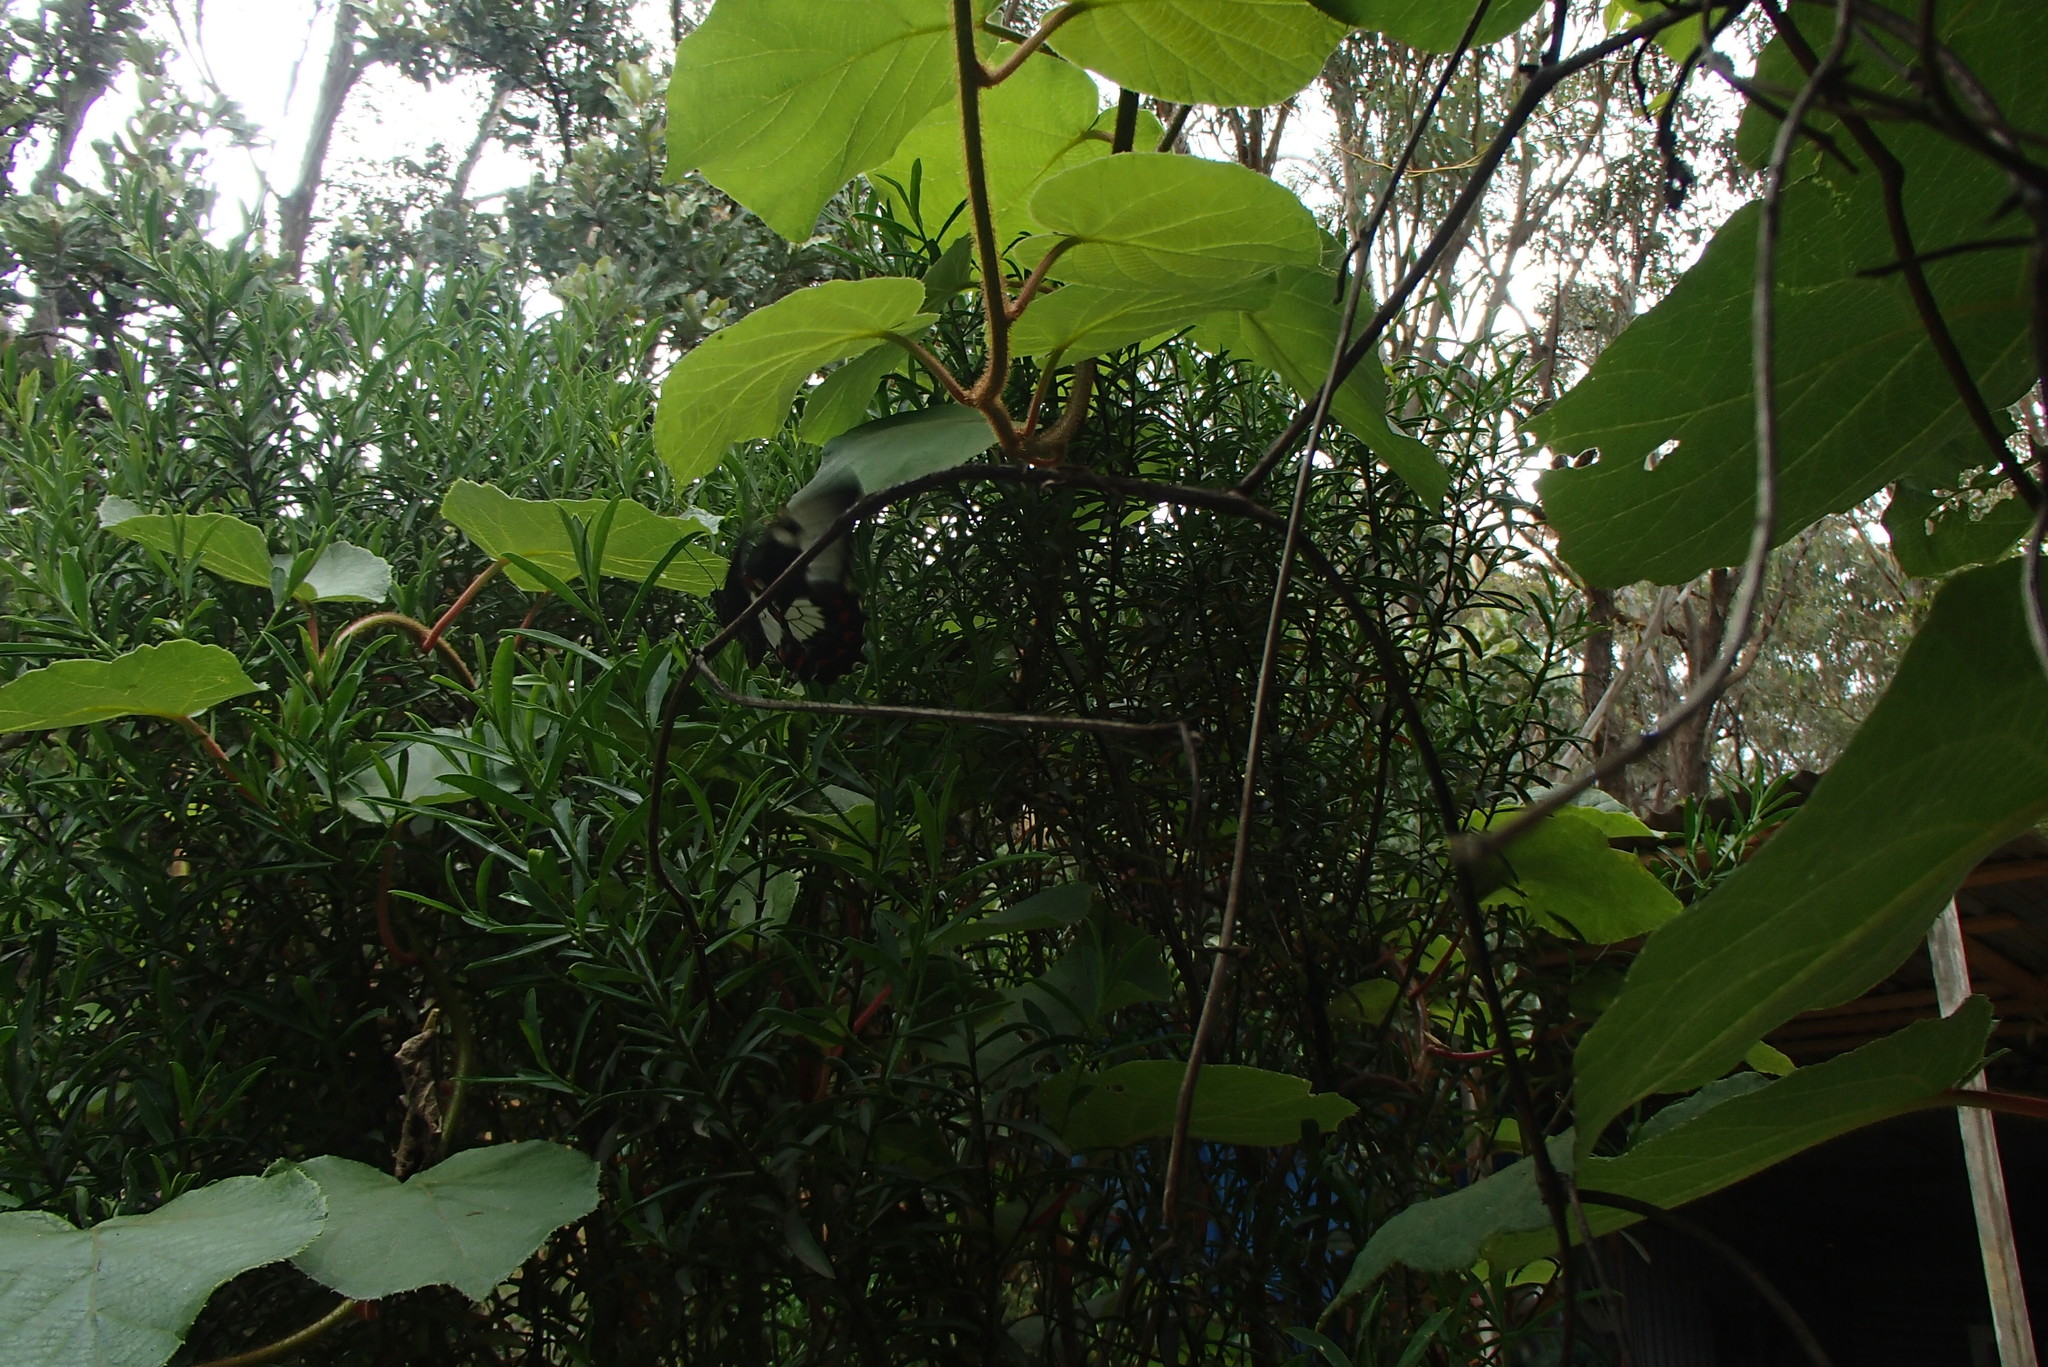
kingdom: Animalia
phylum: Arthropoda
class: Insecta
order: Lepidoptera
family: Papilionidae
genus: Papilio
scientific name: Papilio aegeus
